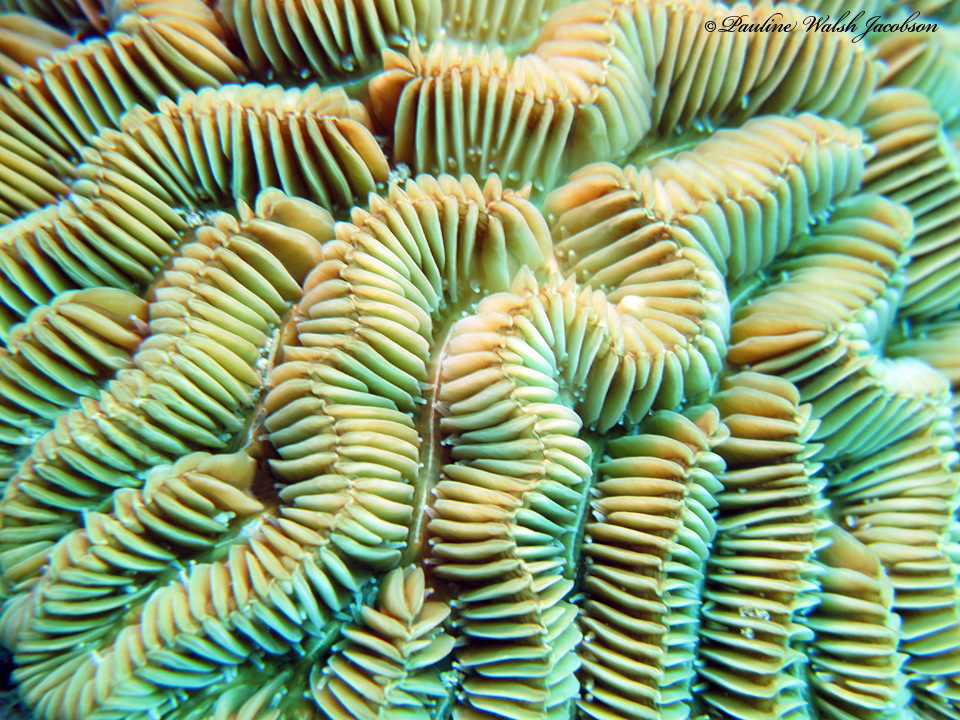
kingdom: Animalia
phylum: Cnidaria
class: Anthozoa
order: Scleractinia
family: Meandrinidae
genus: Meandrina
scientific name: Meandrina meandrites
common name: Maze coral
